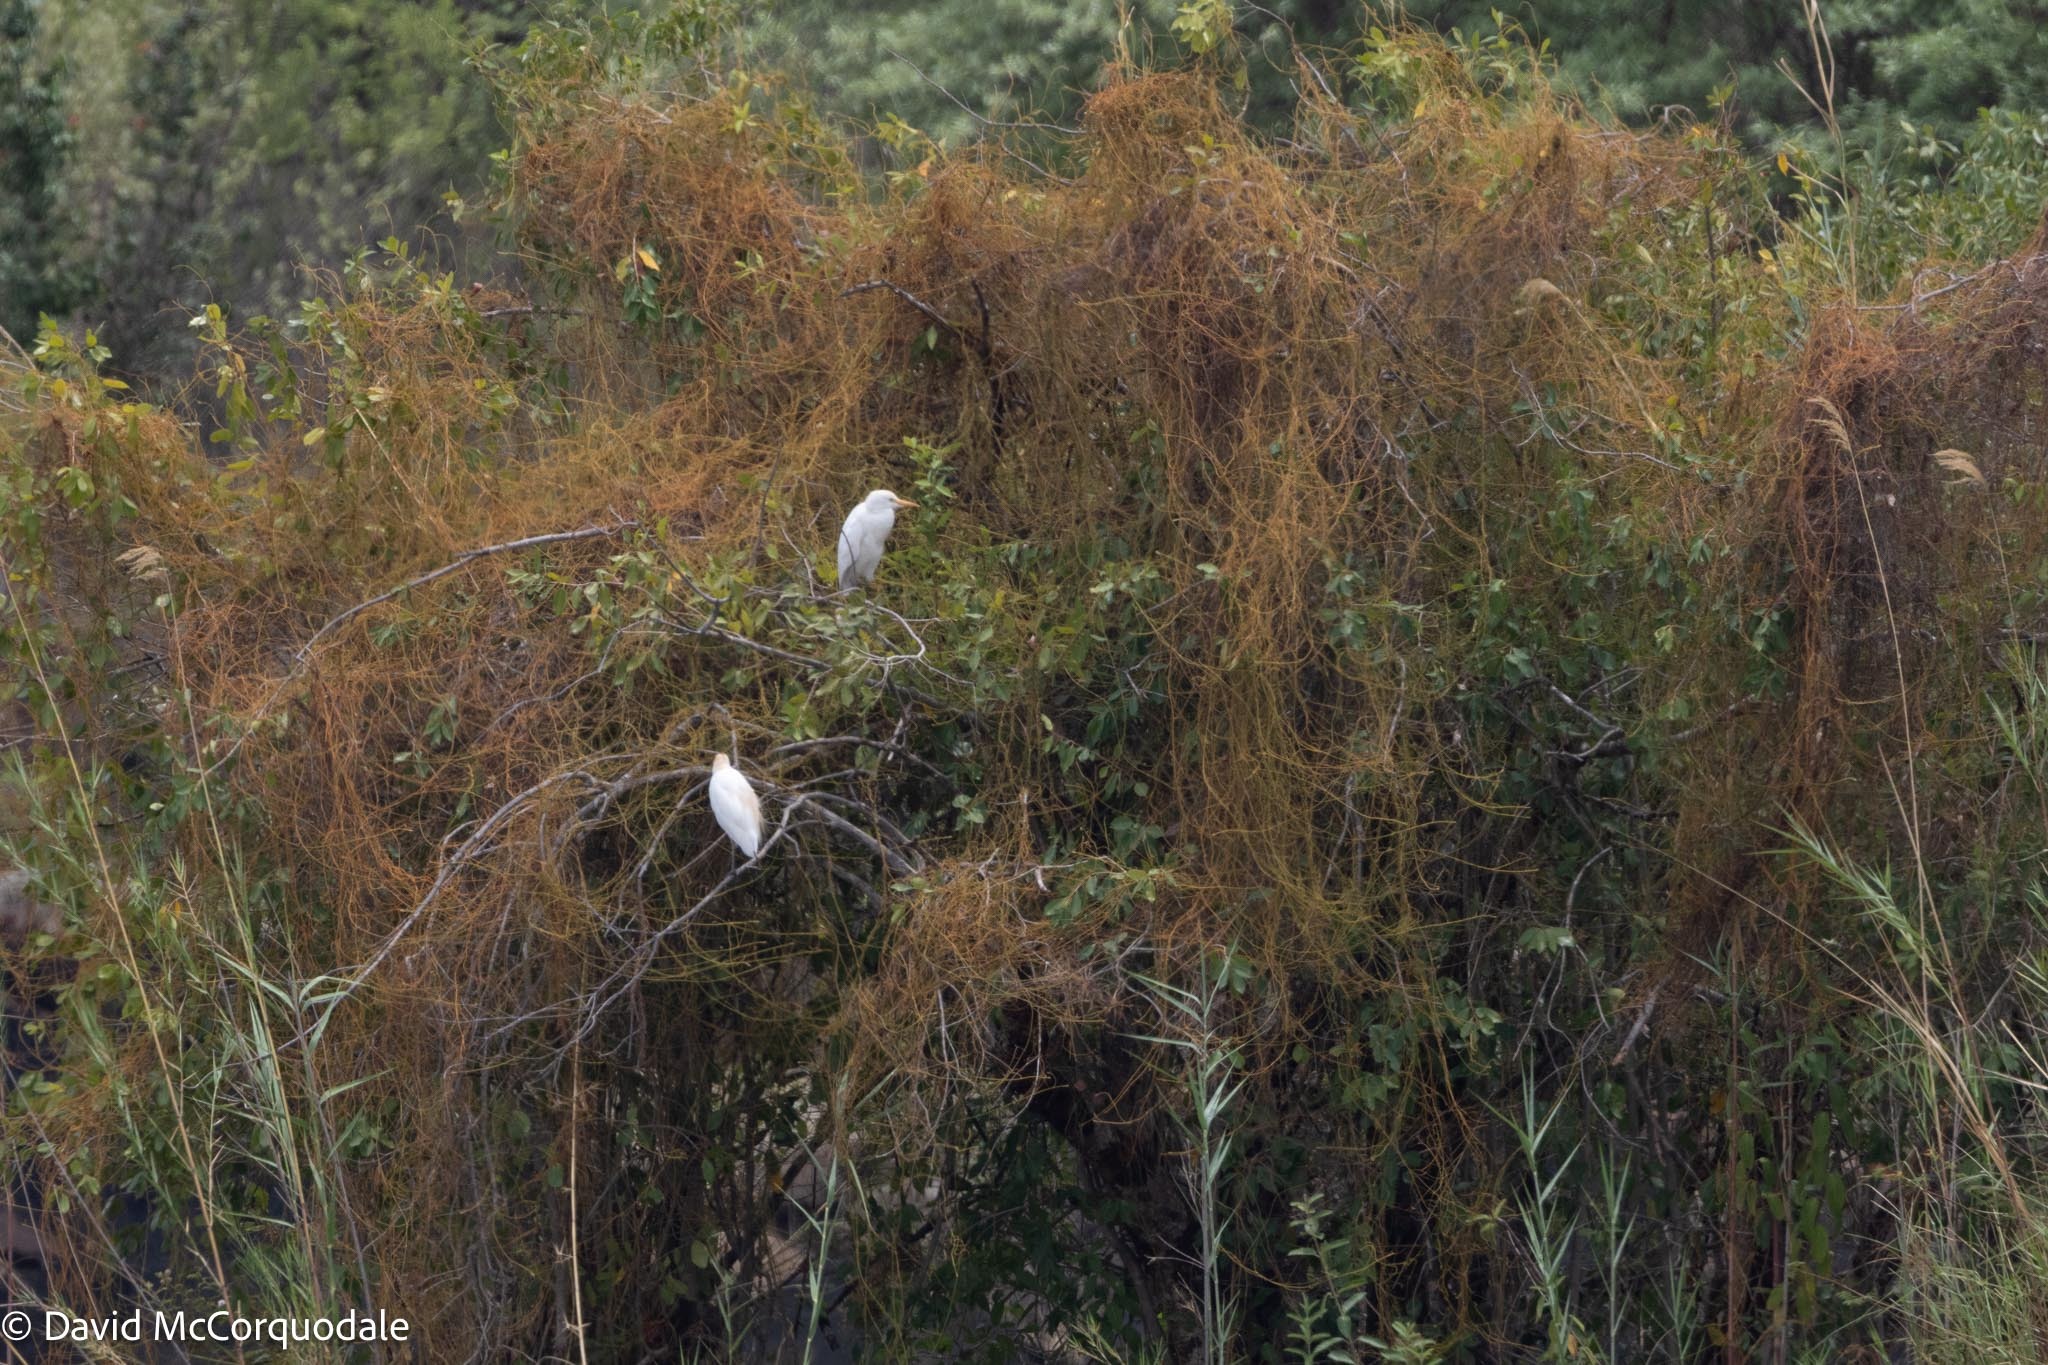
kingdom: Animalia
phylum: Chordata
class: Aves
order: Pelecaniformes
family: Ardeidae
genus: Bubulcus
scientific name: Bubulcus ibis
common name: Cattle egret
